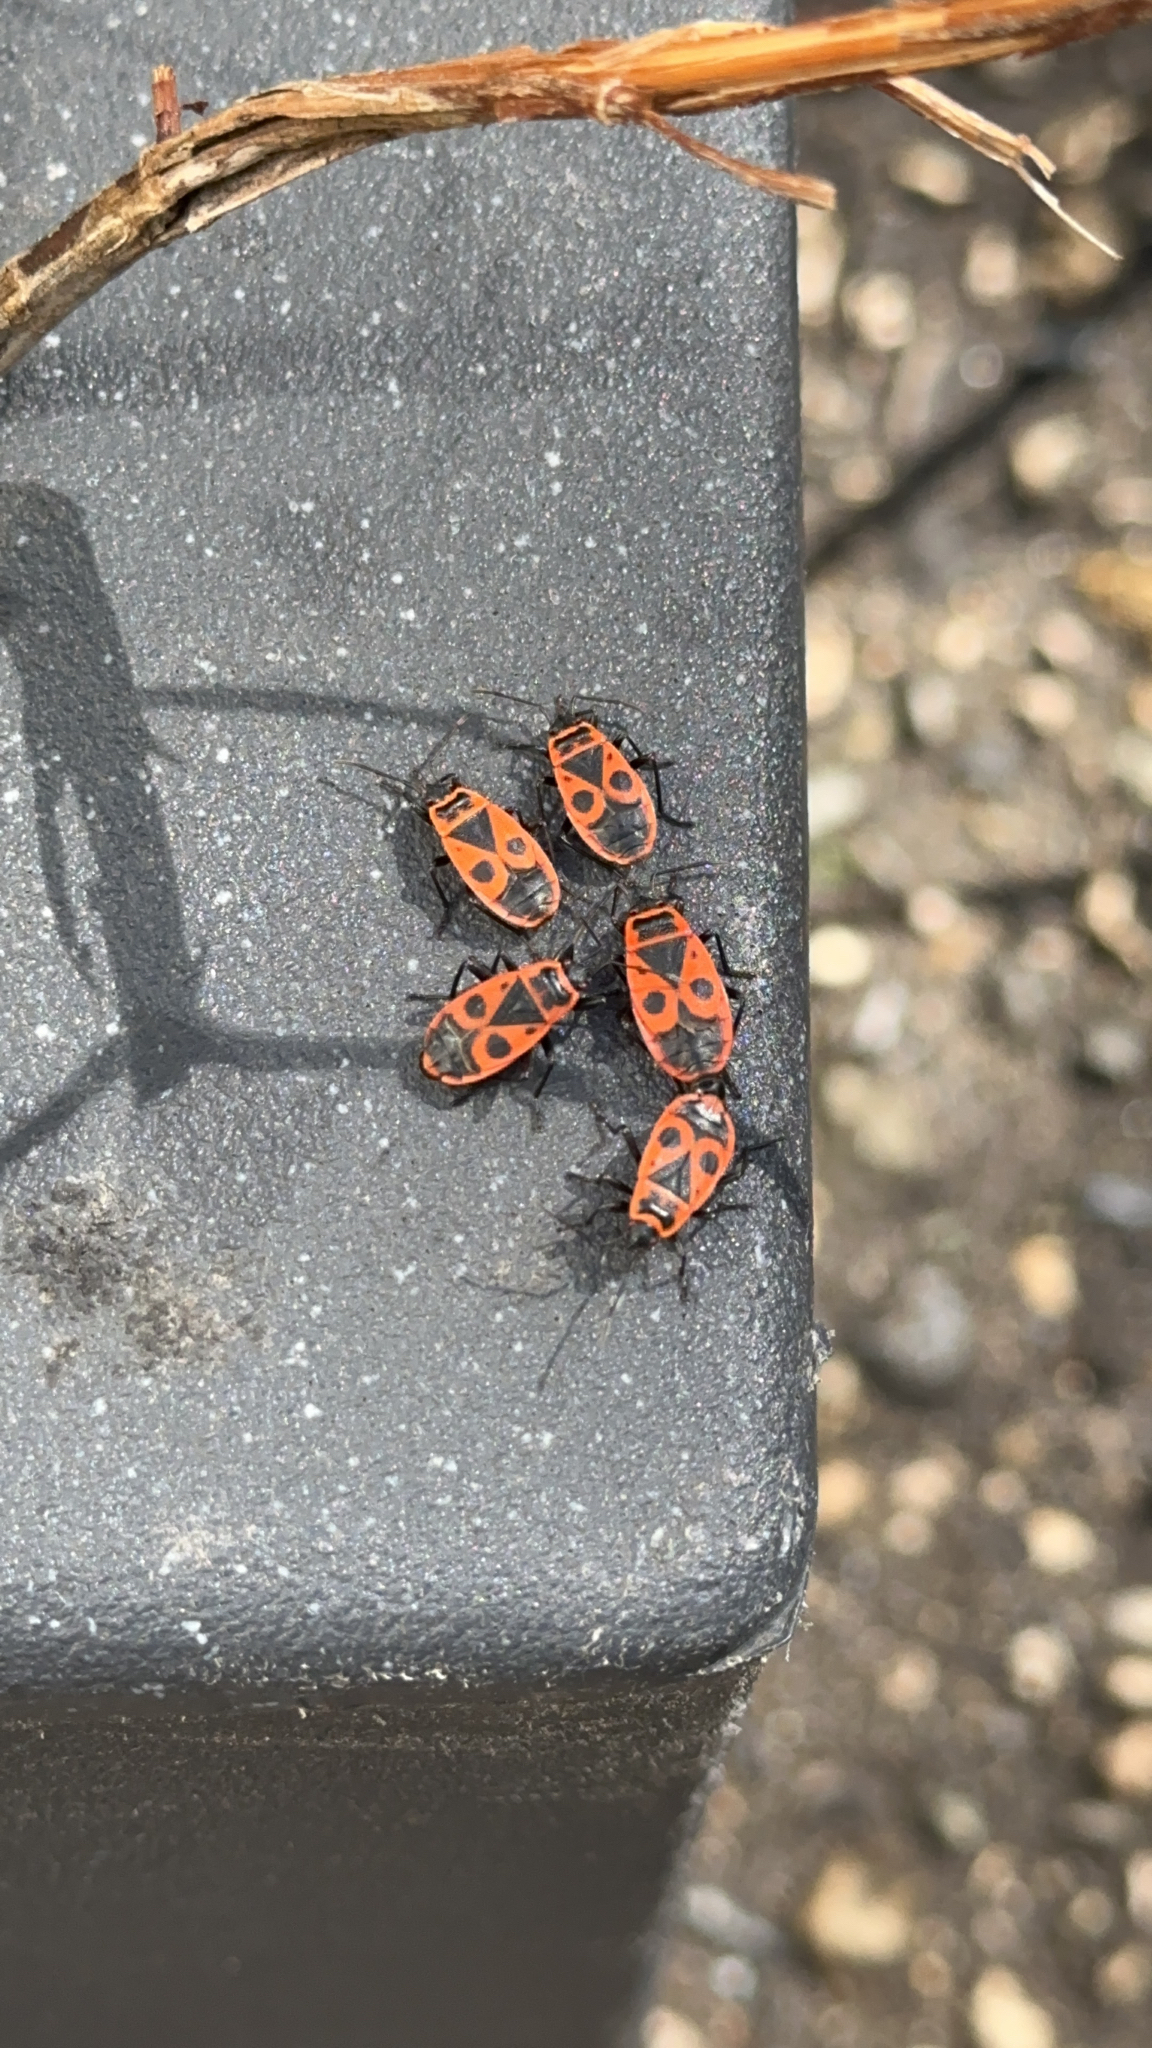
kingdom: Animalia
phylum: Arthropoda
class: Insecta
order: Hemiptera
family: Pyrrhocoridae
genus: Pyrrhocoris
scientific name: Pyrrhocoris apterus
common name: Firebug
